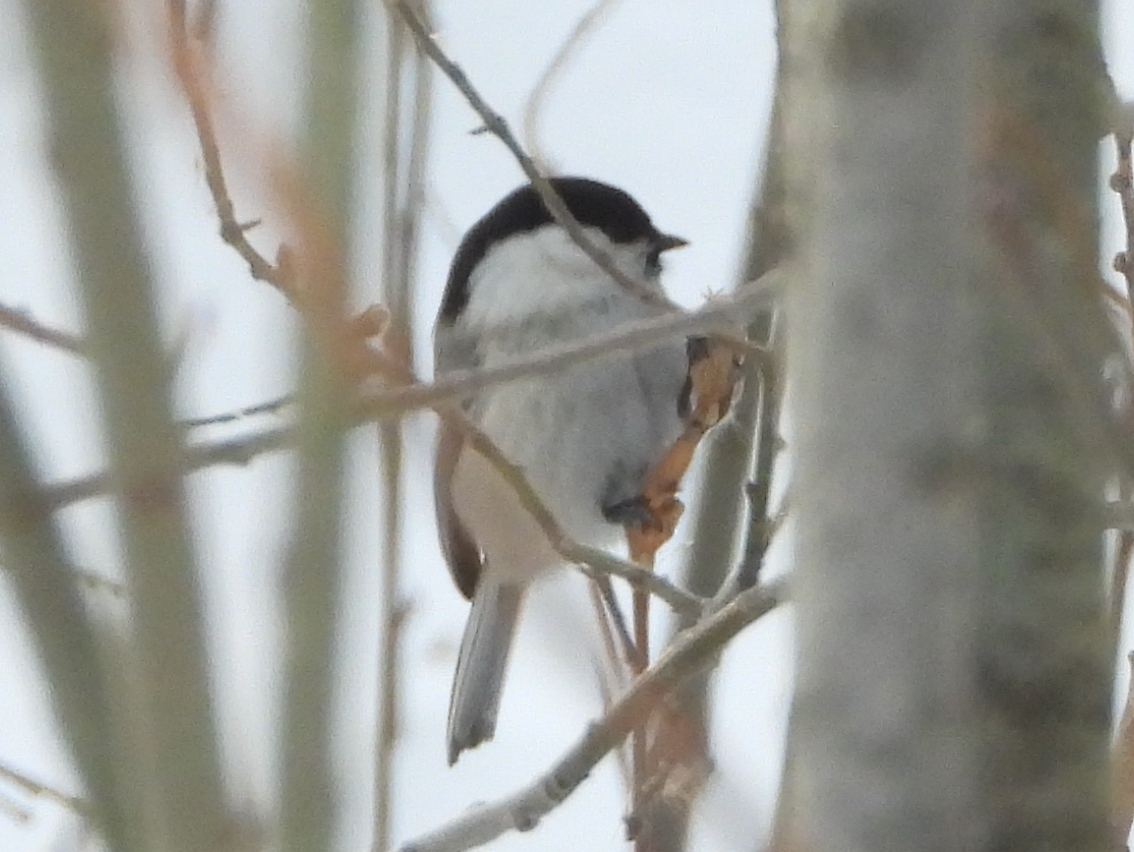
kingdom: Animalia
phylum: Chordata
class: Aves
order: Passeriformes
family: Paridae
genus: Poecile
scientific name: Poecile montanus
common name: Willow tit
